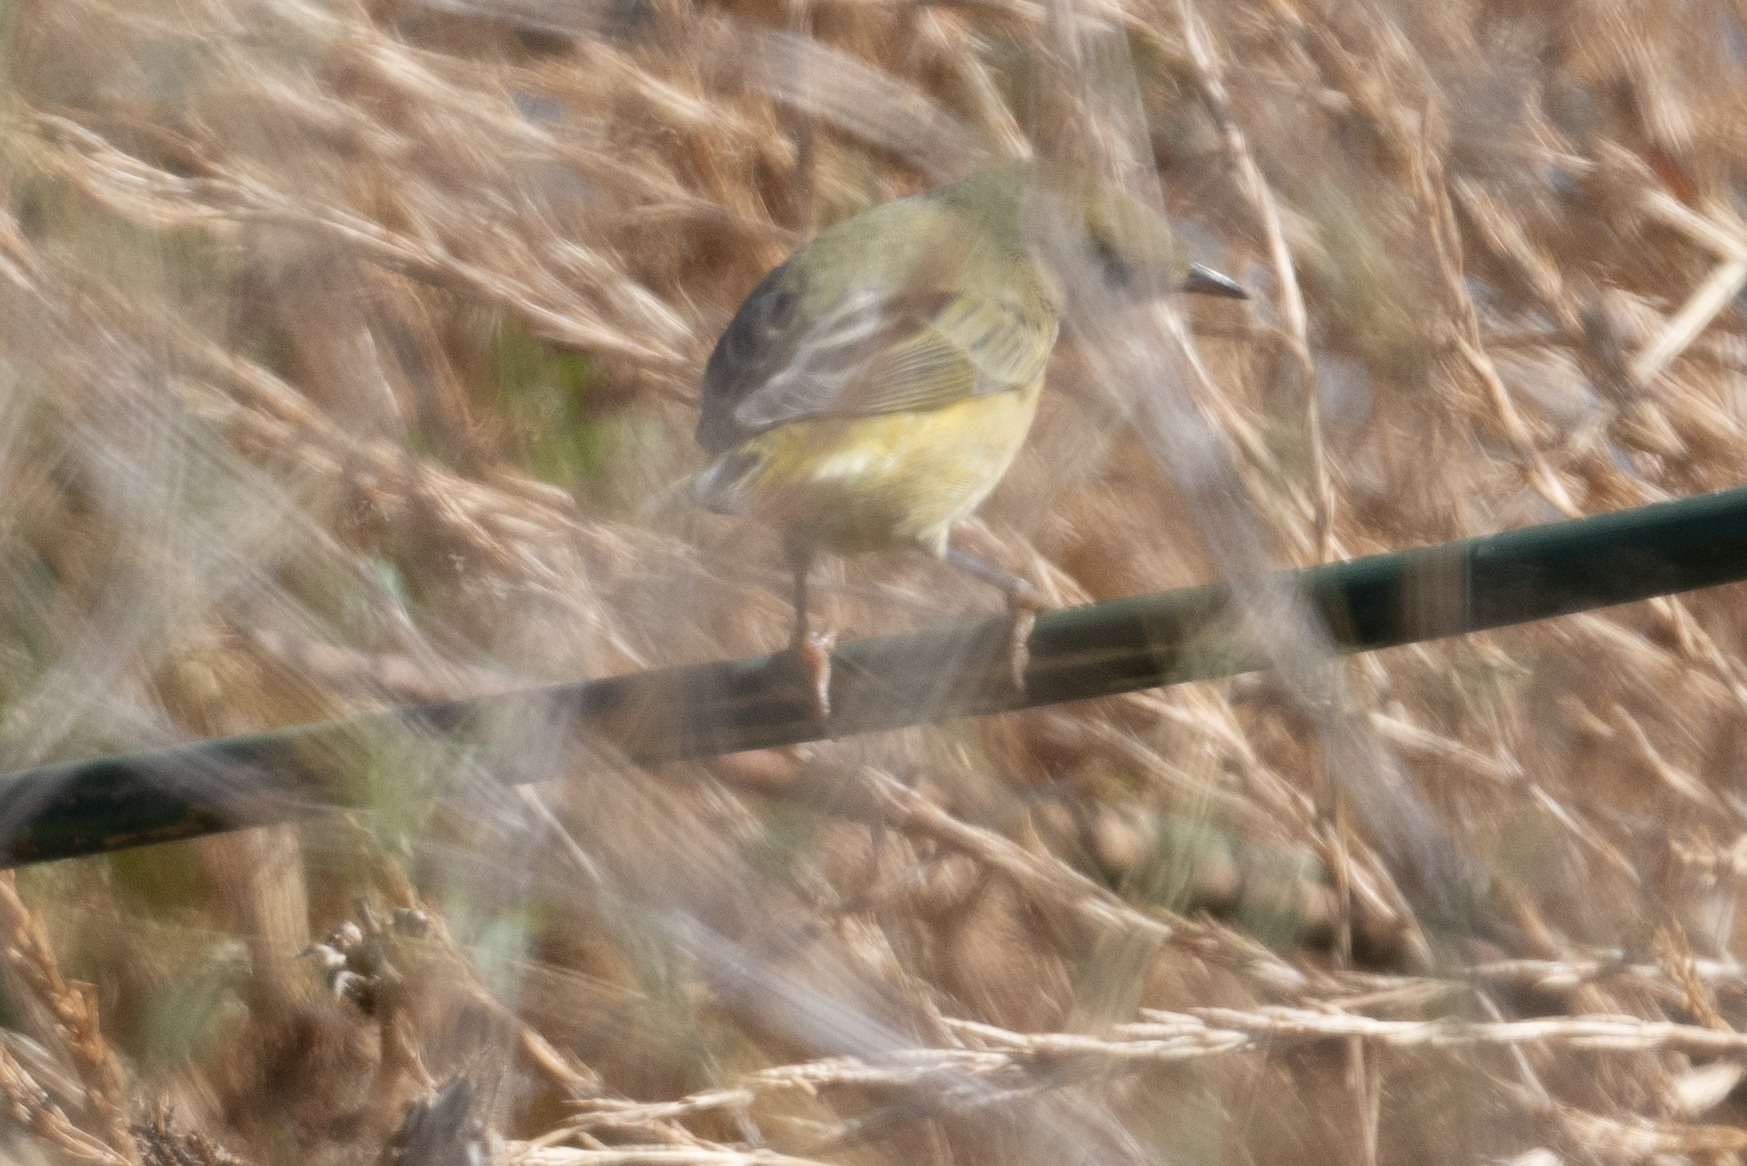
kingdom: Animalia
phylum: Chordata
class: Aves
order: Passeriformes
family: Parulidae
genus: Setophaga
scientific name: Setophaga petechia
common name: Yellow warbler
